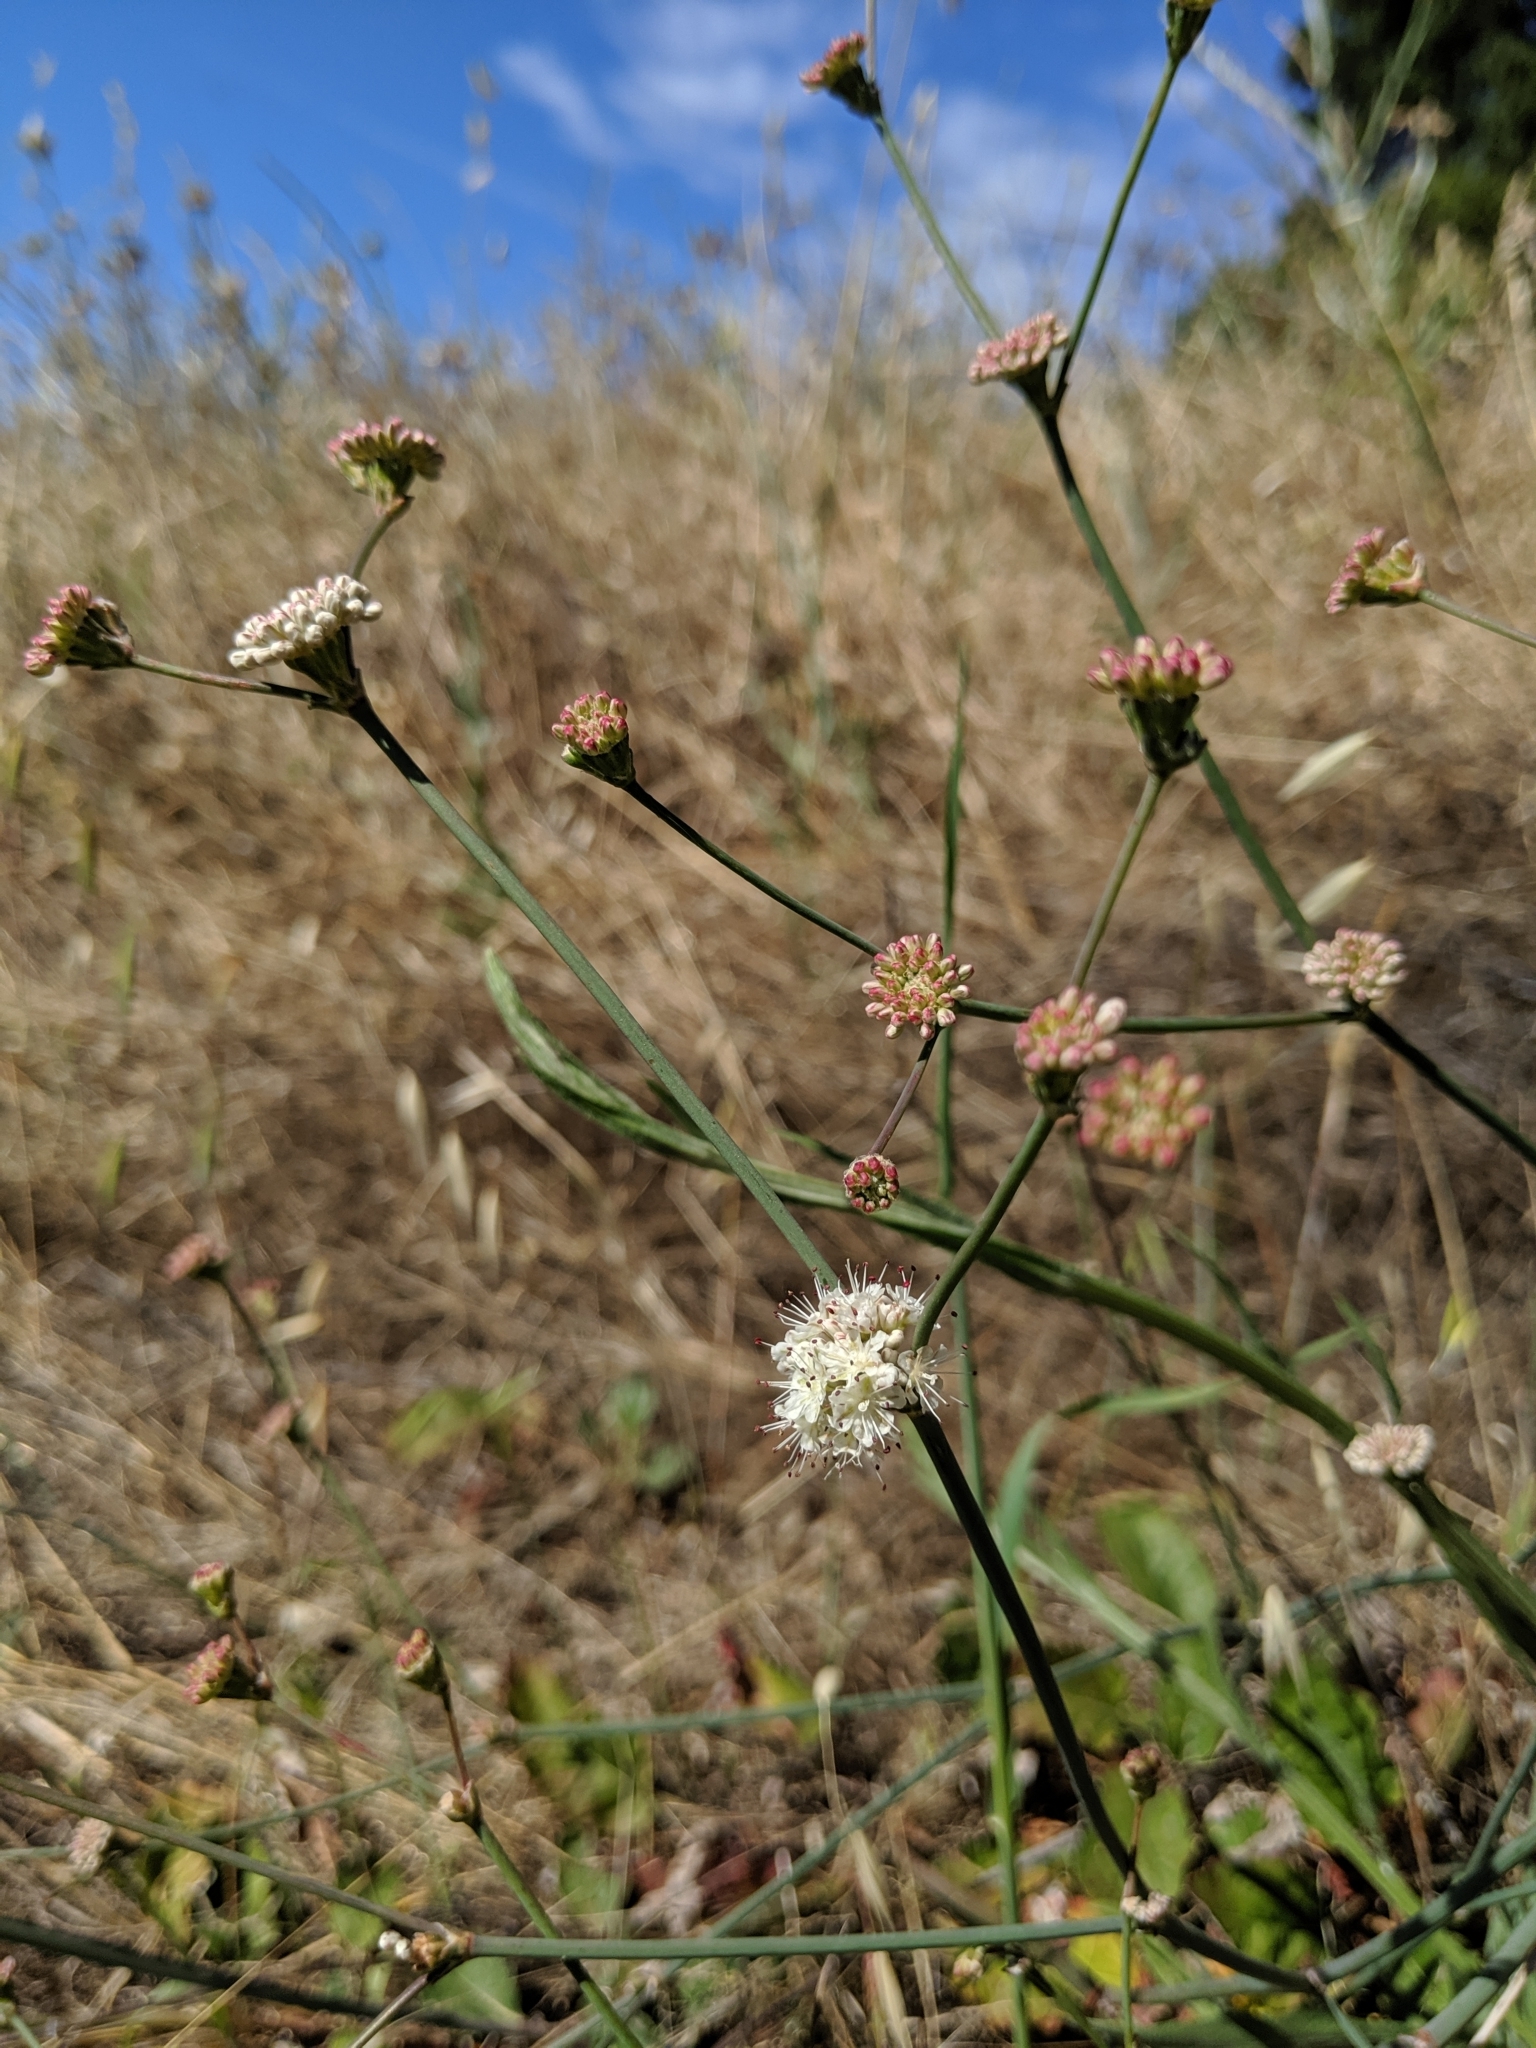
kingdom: Plantae
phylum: Tracheophyta
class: Magnoliopsida
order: Caryophyllales
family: Polygonaceae
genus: Eriogonum
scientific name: Eriogonum nudum
